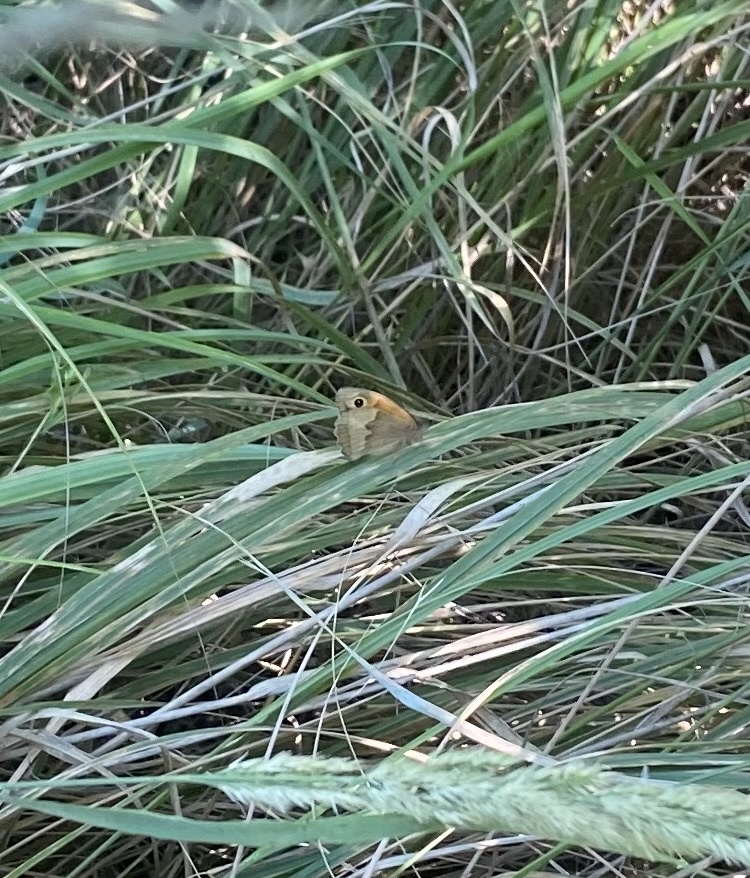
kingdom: Animalia
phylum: Arthropoda
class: Insecta
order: Lepidoptera
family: Nymphalidae
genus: Maniola
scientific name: Maniola jurtina
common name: Meadow brown
